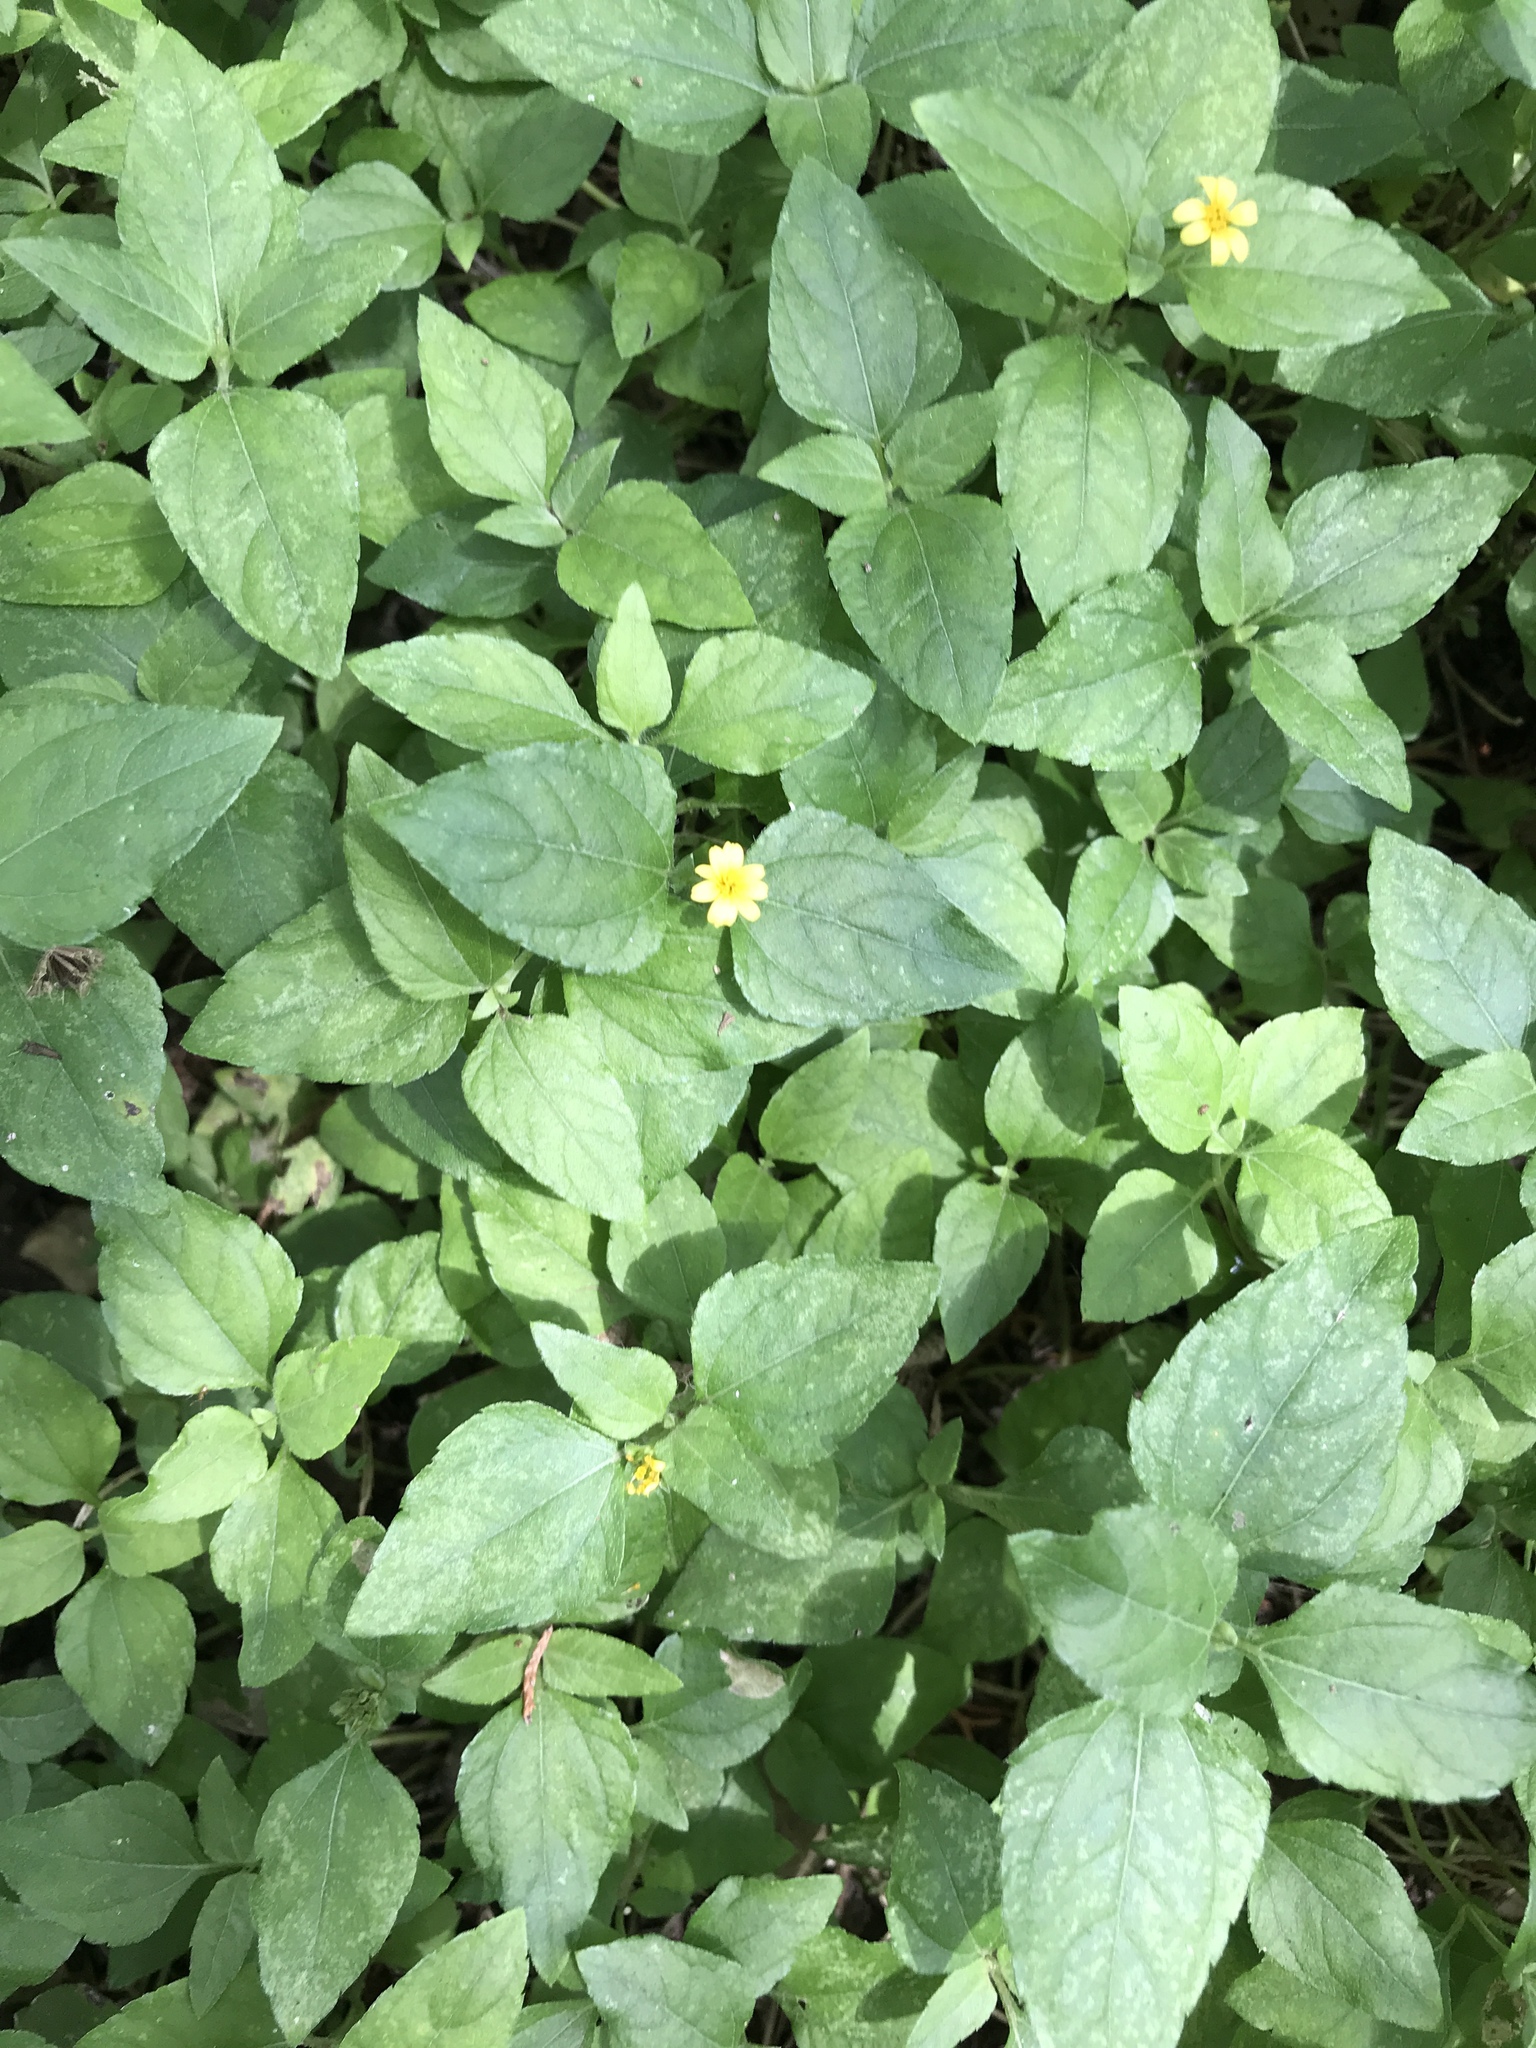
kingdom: Plantae
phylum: Tracheophyta
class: Magnoliopsida
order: Asterales
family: Asteraceae
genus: Calyptocarpus
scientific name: Calyptocarpus vialis
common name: Straggler daisy
